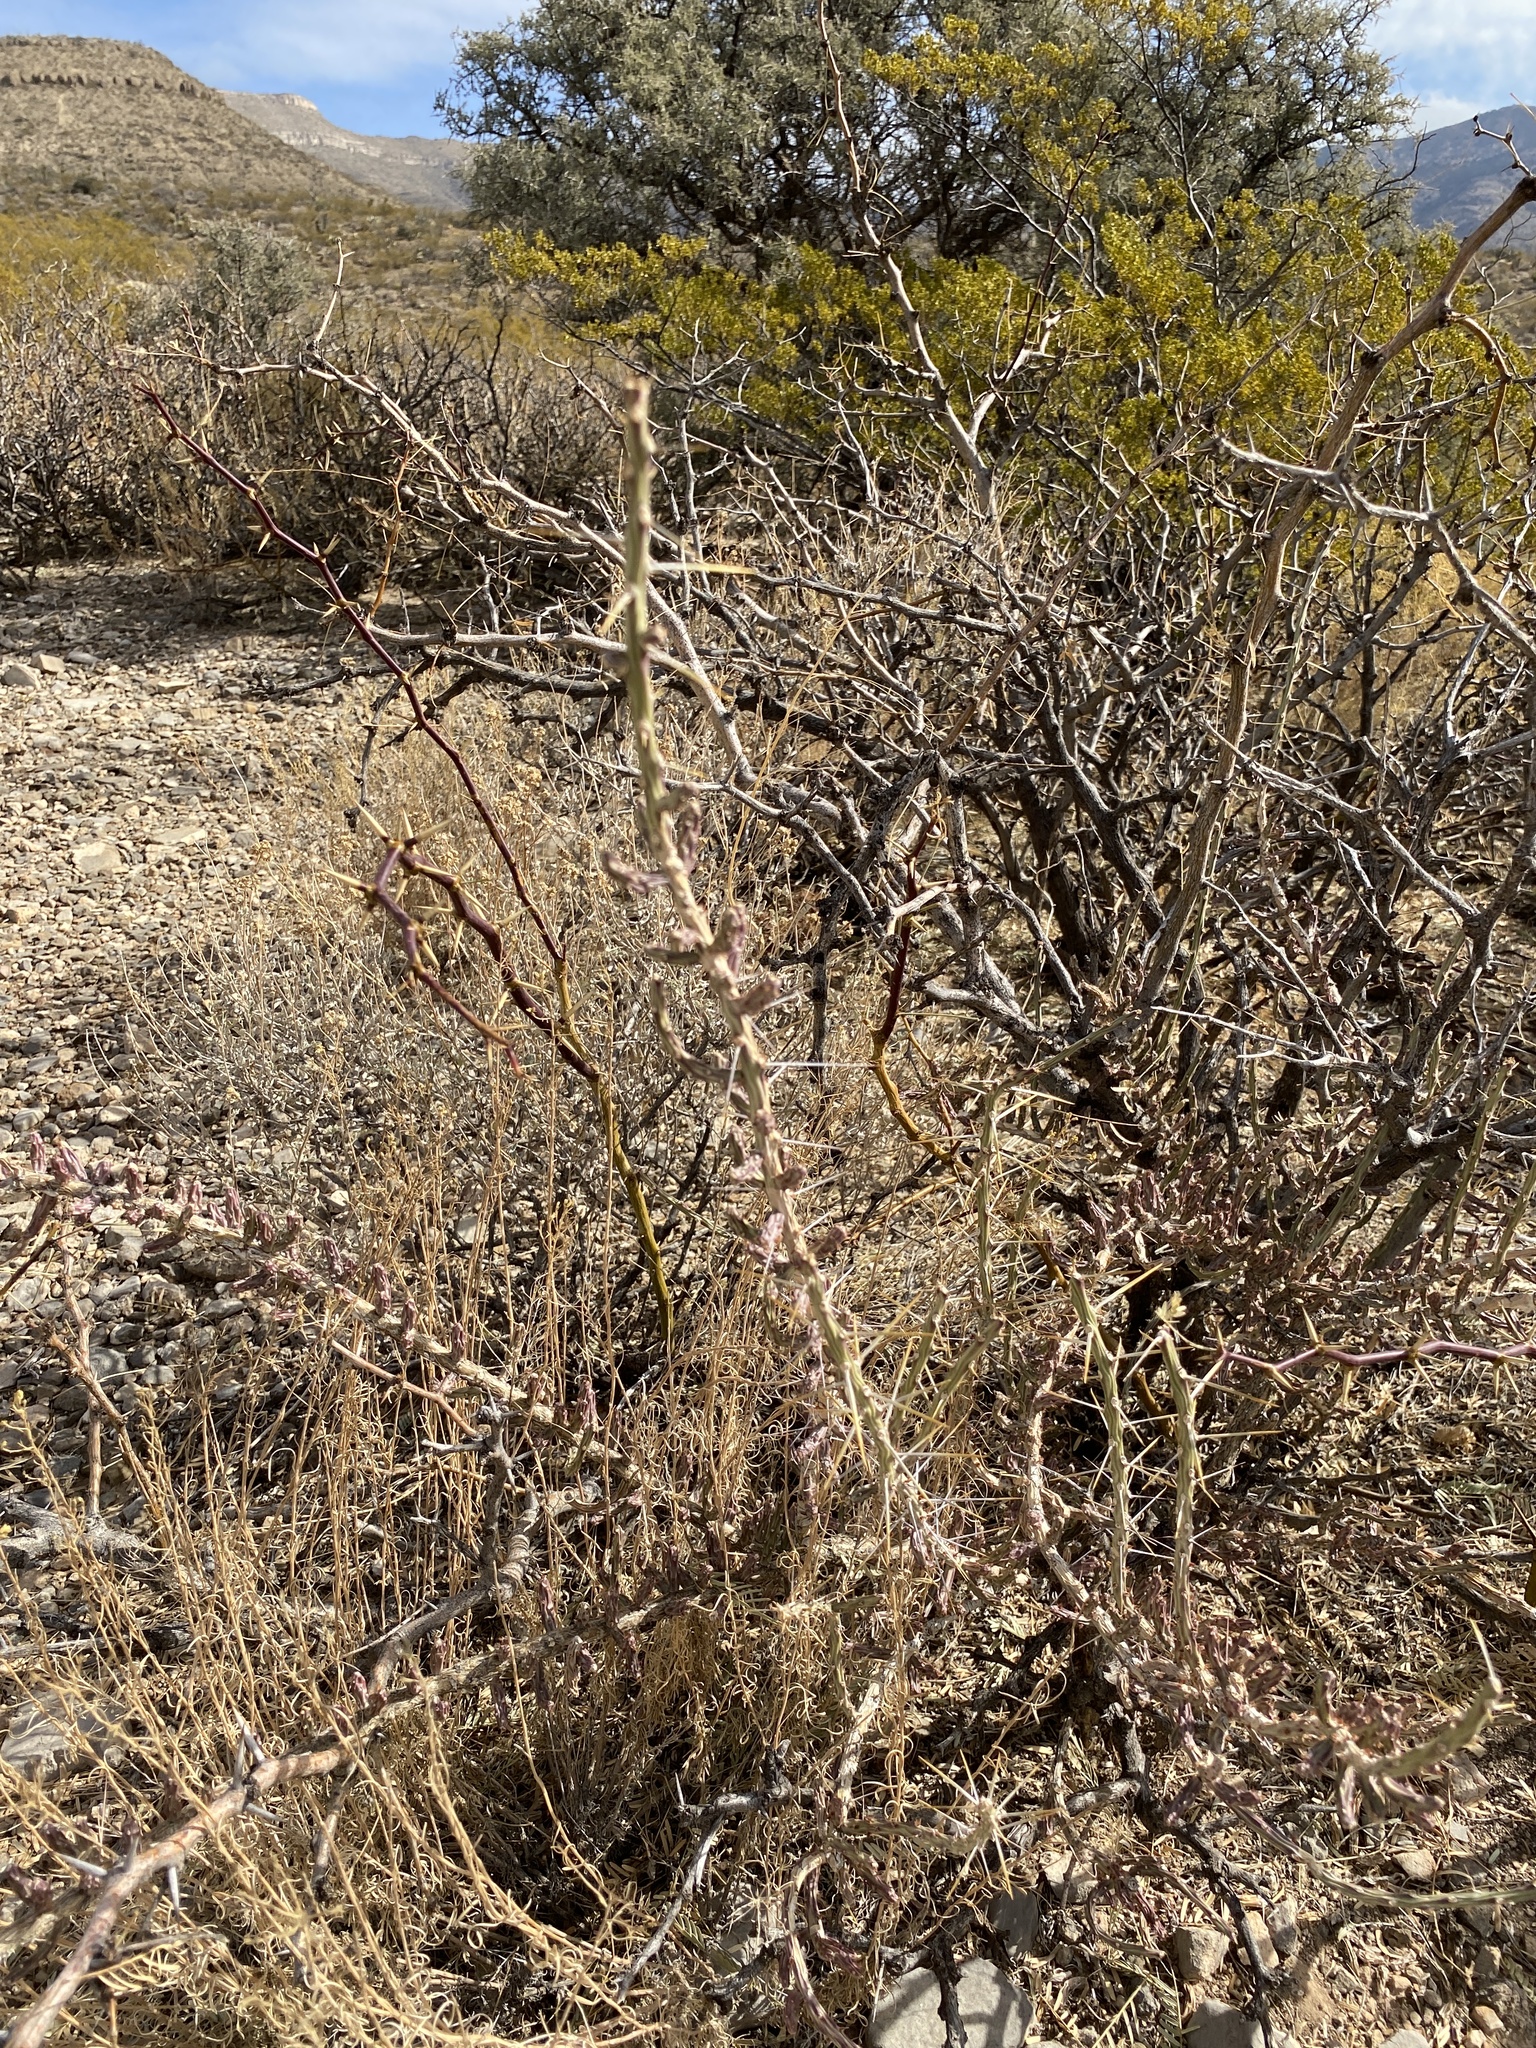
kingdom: Plantae
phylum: Tracheophyta
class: Magnoliopsida
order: Caryophyllales
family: Cactaceae
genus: Cylindropuntia
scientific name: Cylindropuntia leptocaulis
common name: Christmas cactus
